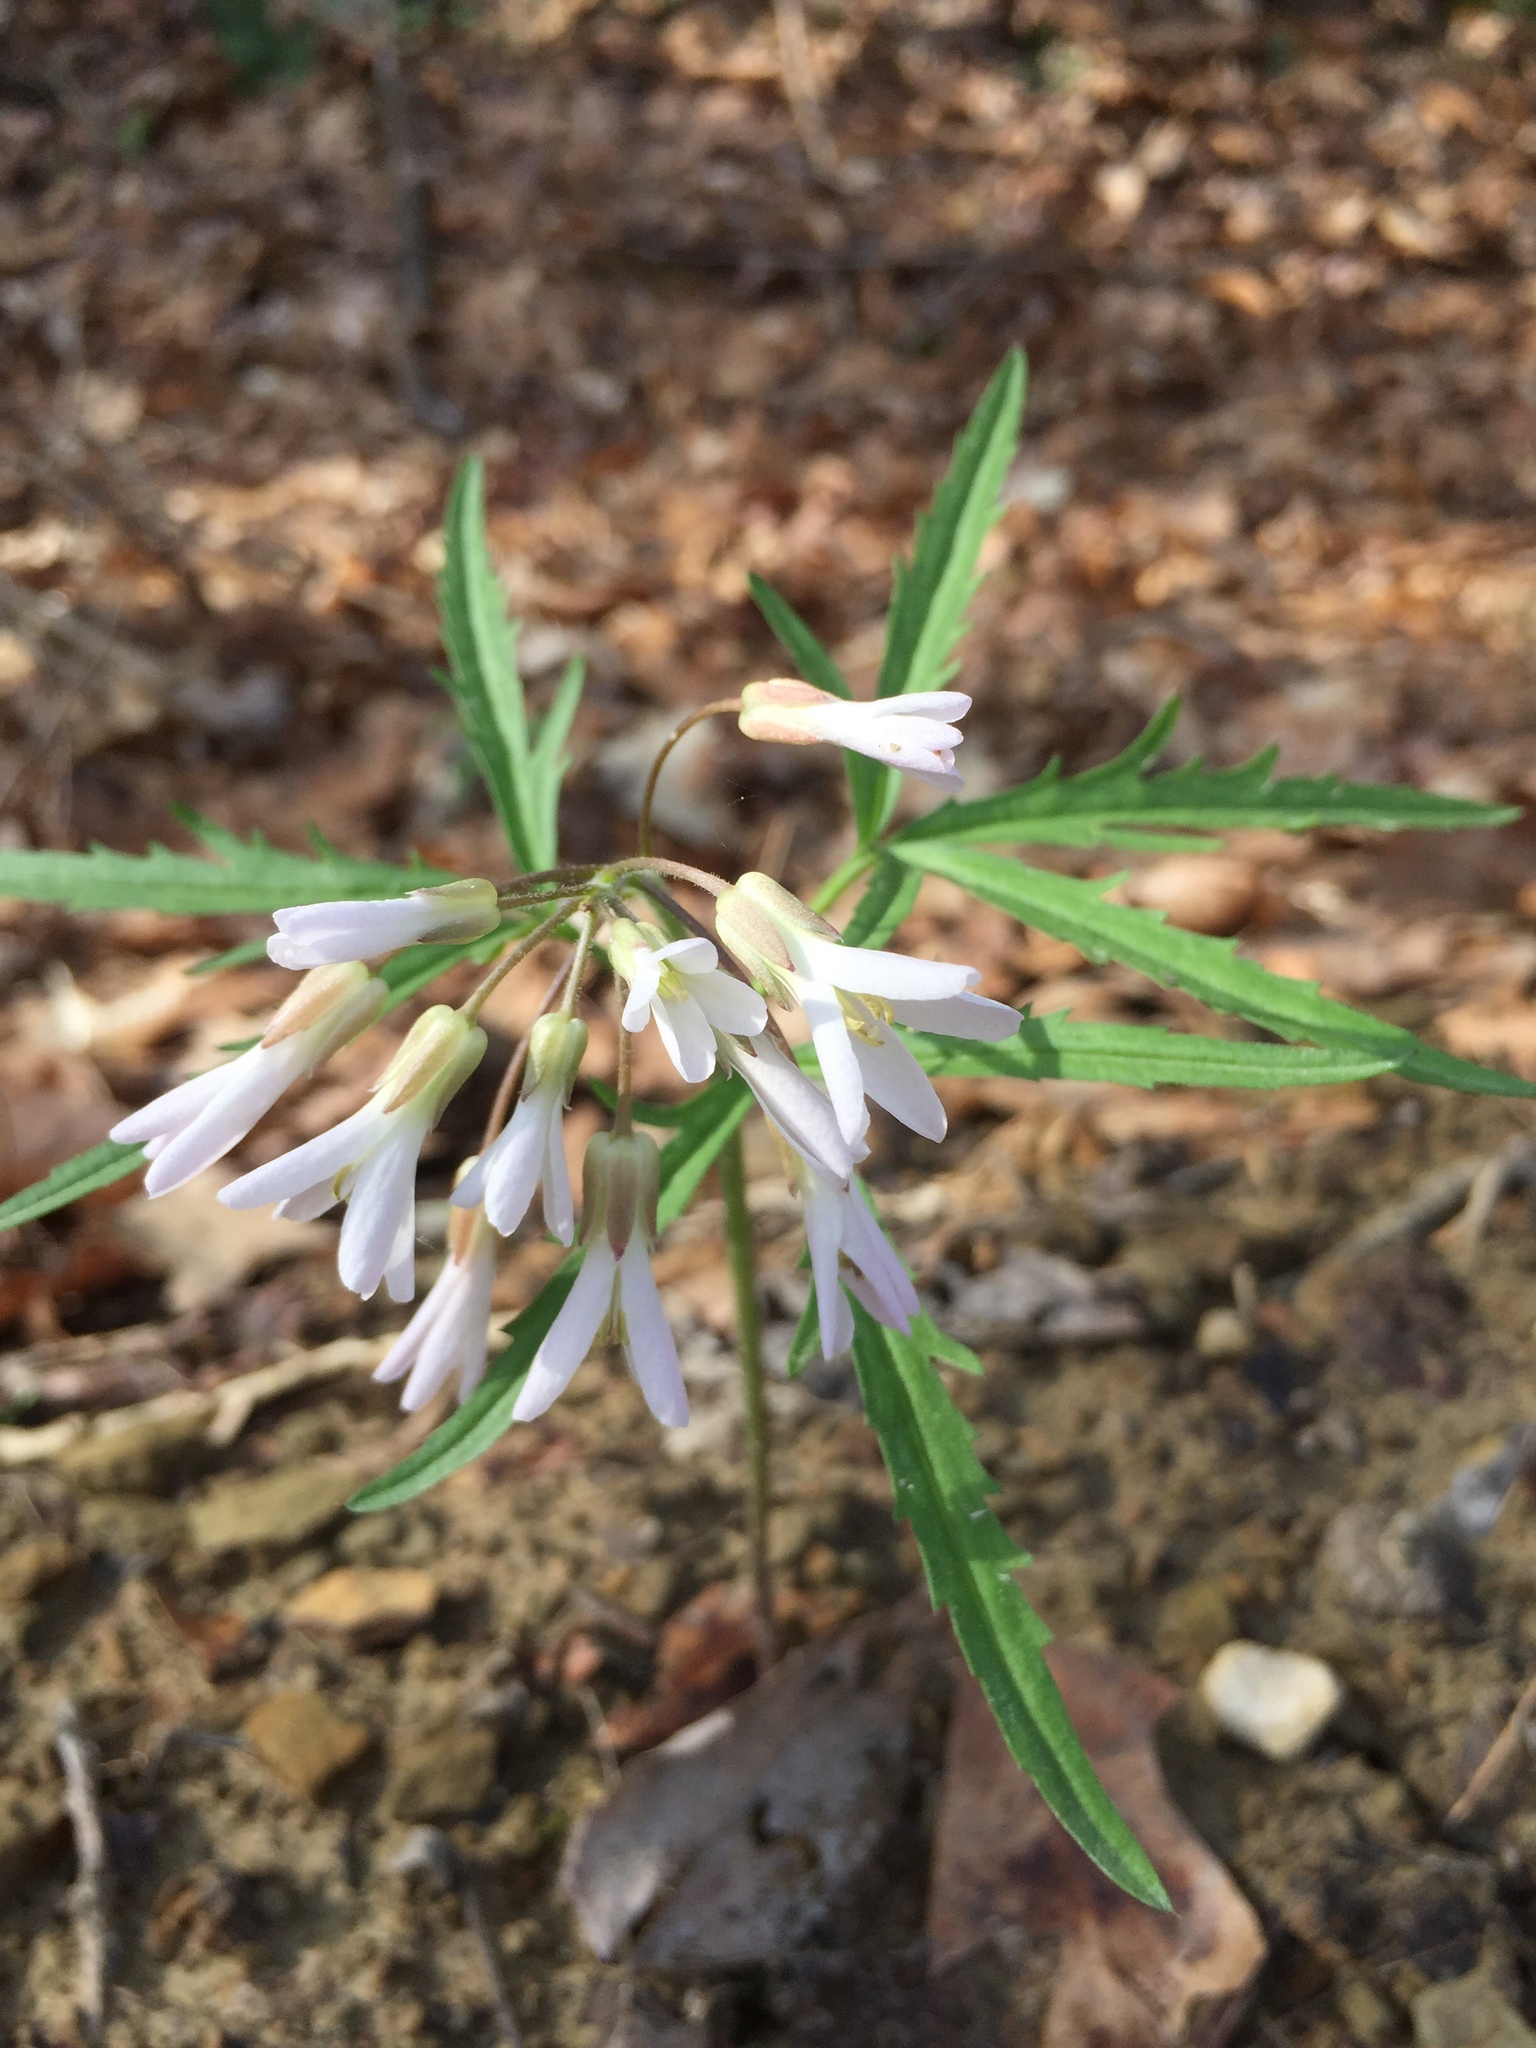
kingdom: Plantae
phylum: Tracheophyta
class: Magnoliopsida
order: Brassicales
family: Brassicaceae
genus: Cardamine
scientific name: Cardamine concatenata
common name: Cut-leaf toothcup
